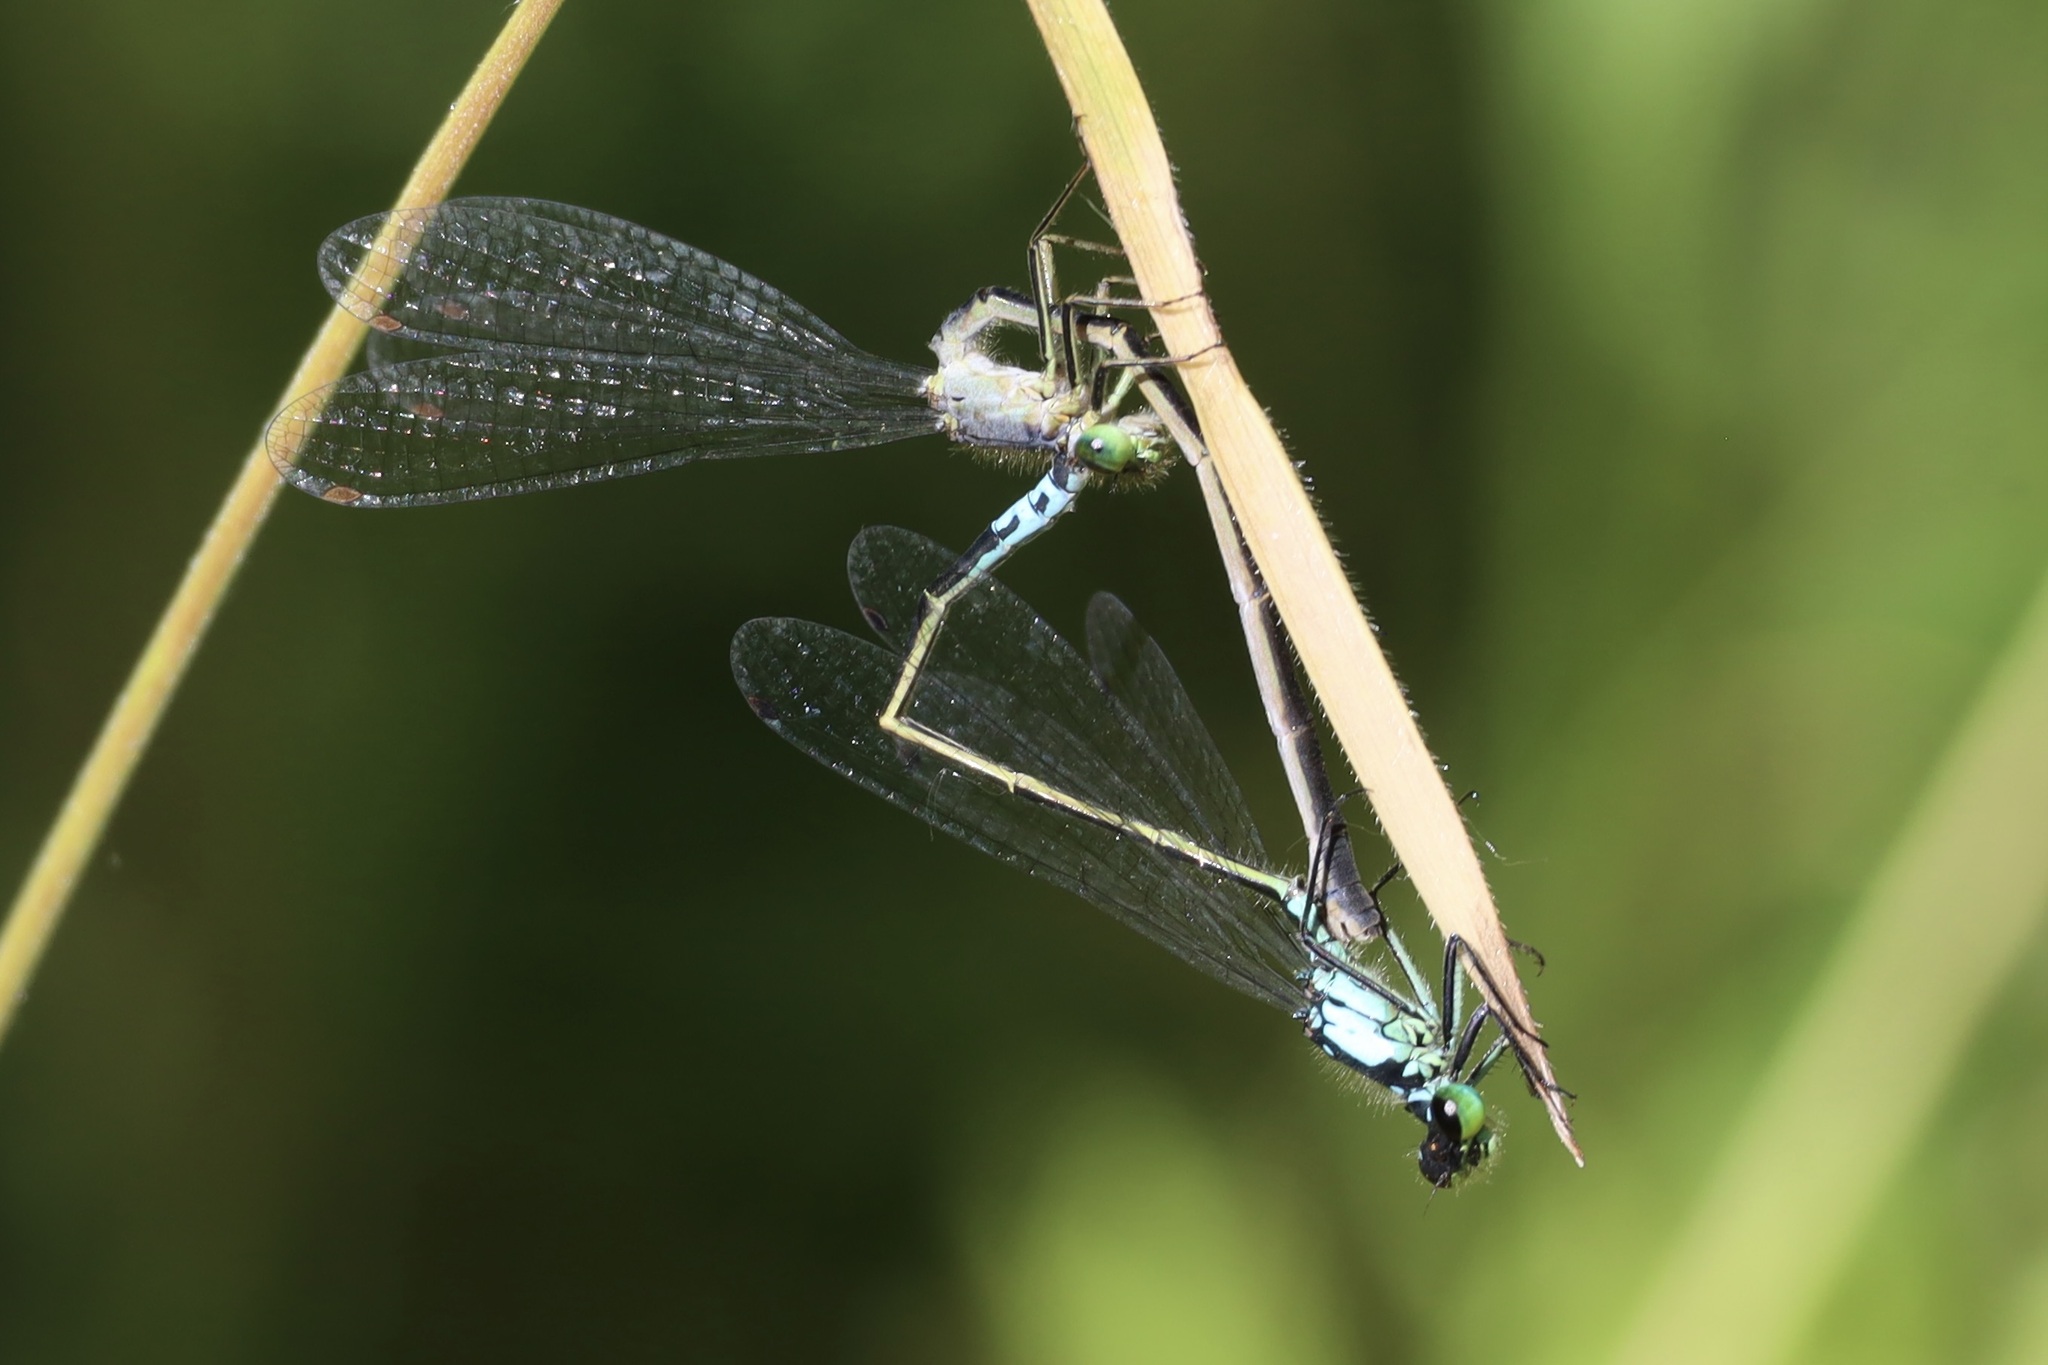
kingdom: Animalia
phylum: Arthropoda
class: Insecta
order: Odonata
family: Coenagrionidae
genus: Ischnura
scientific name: Ischnura cervula
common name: Pacific forktail
